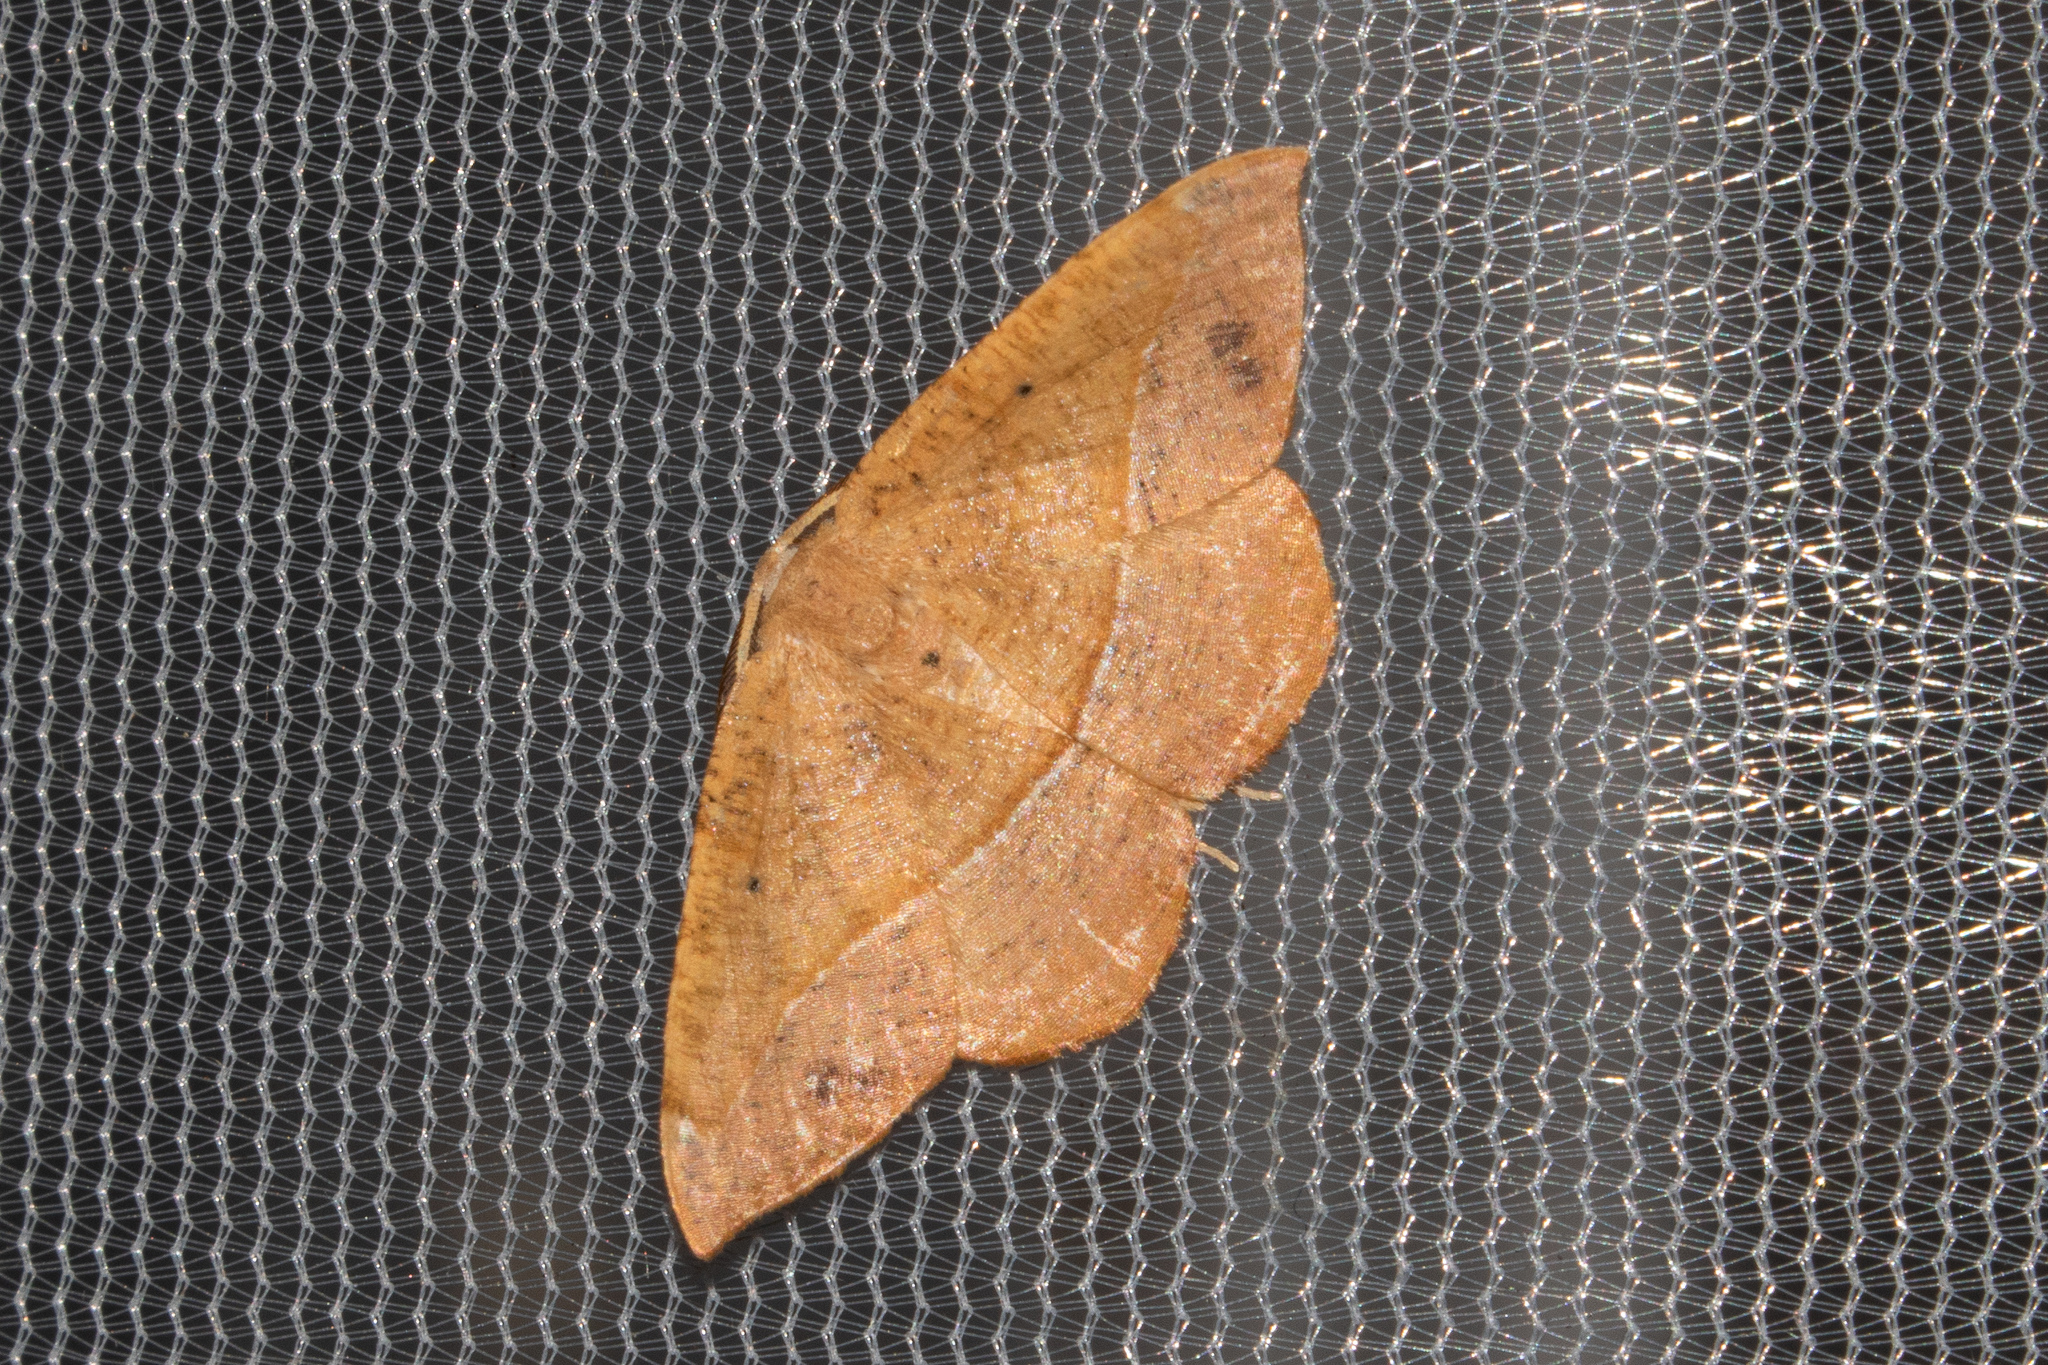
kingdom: Animalia
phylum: Arthropoda
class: Insecta
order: Lepidoptera
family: Geometridae
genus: Patalene
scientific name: Patalene olyzonaria
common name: Juniper geometer moth
